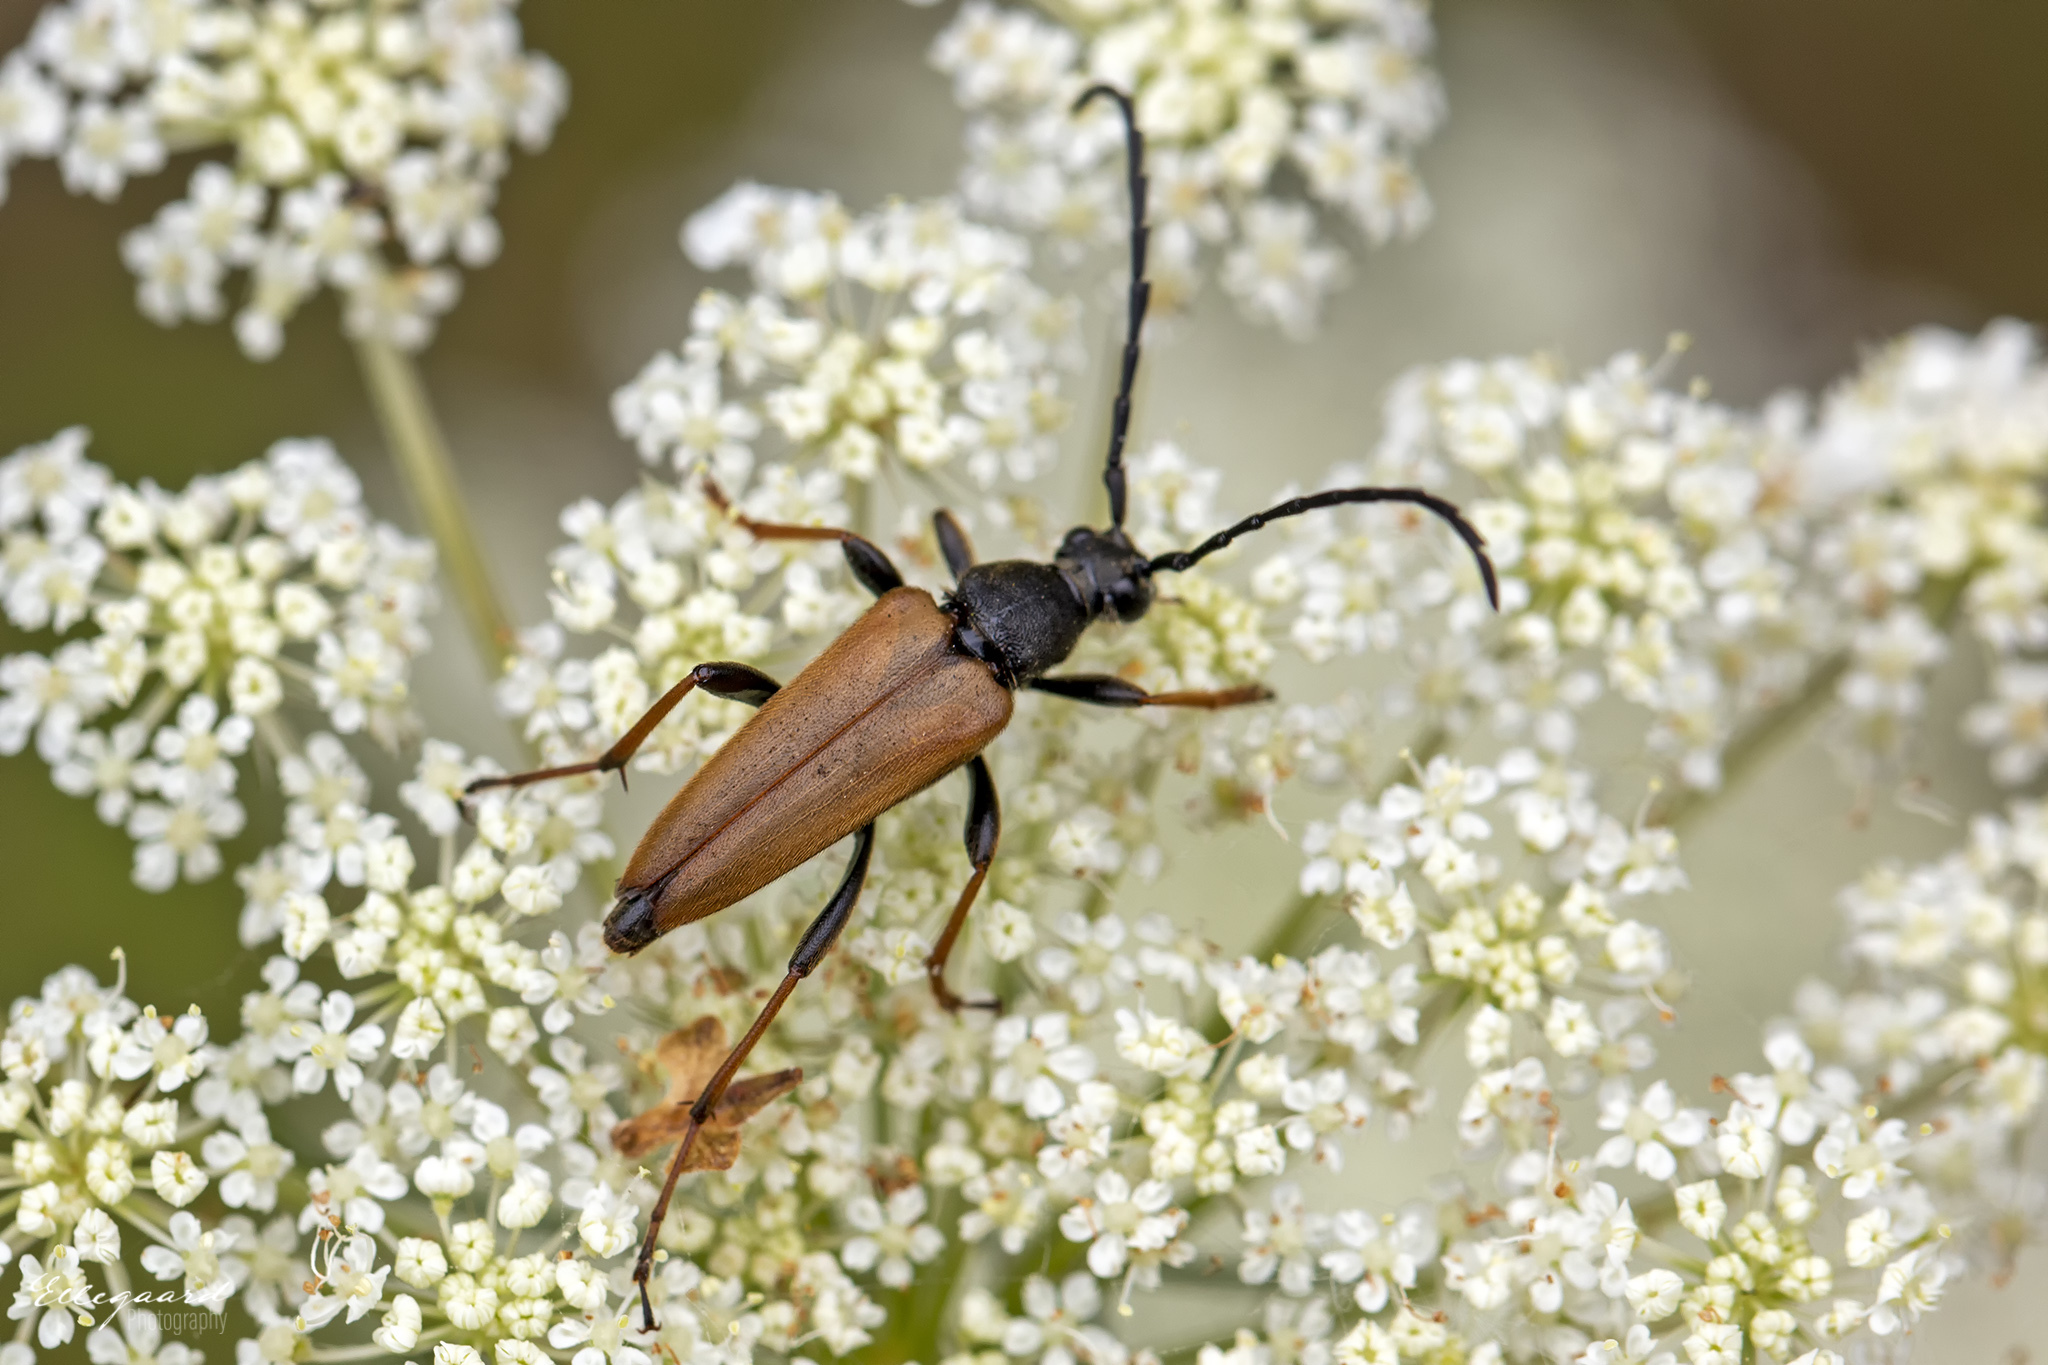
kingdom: Animalia
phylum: Arthropoda
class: Insecta
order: Coleoptera
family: Cerambycidae
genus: Stictoleptura
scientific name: Stictoleptura rubra
